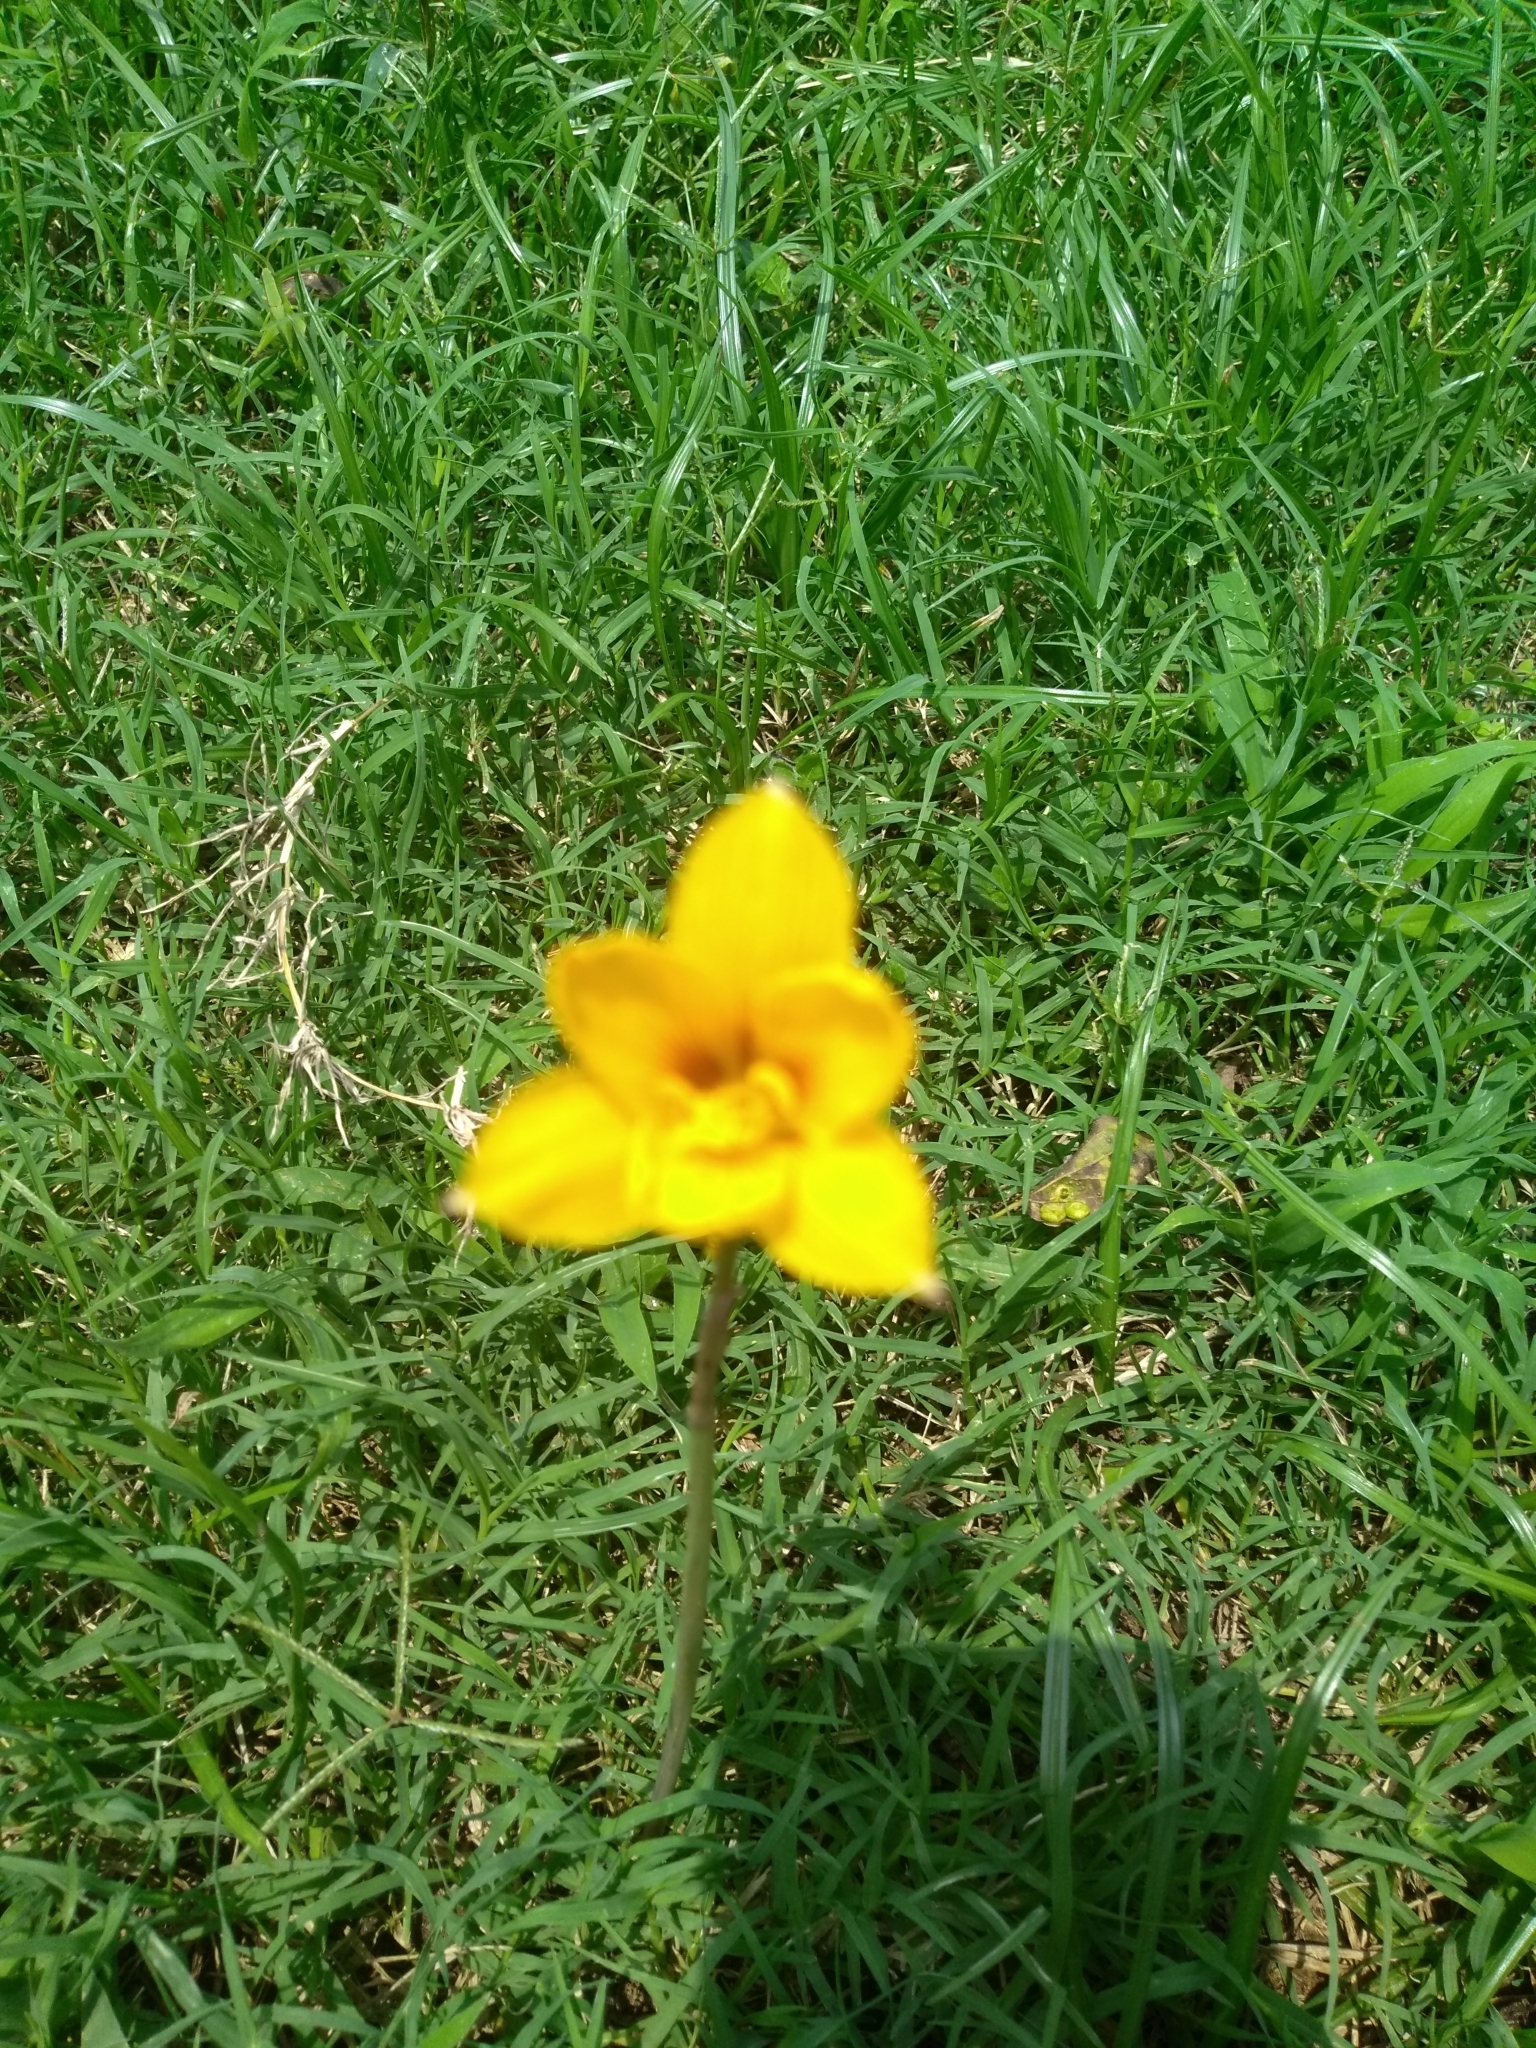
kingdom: Plantae
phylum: Tracheophyta
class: Liliopsida
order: Asparagales
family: Amaryllidaceae
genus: Zephyranthes
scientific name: Zephyranthes tubispatha
